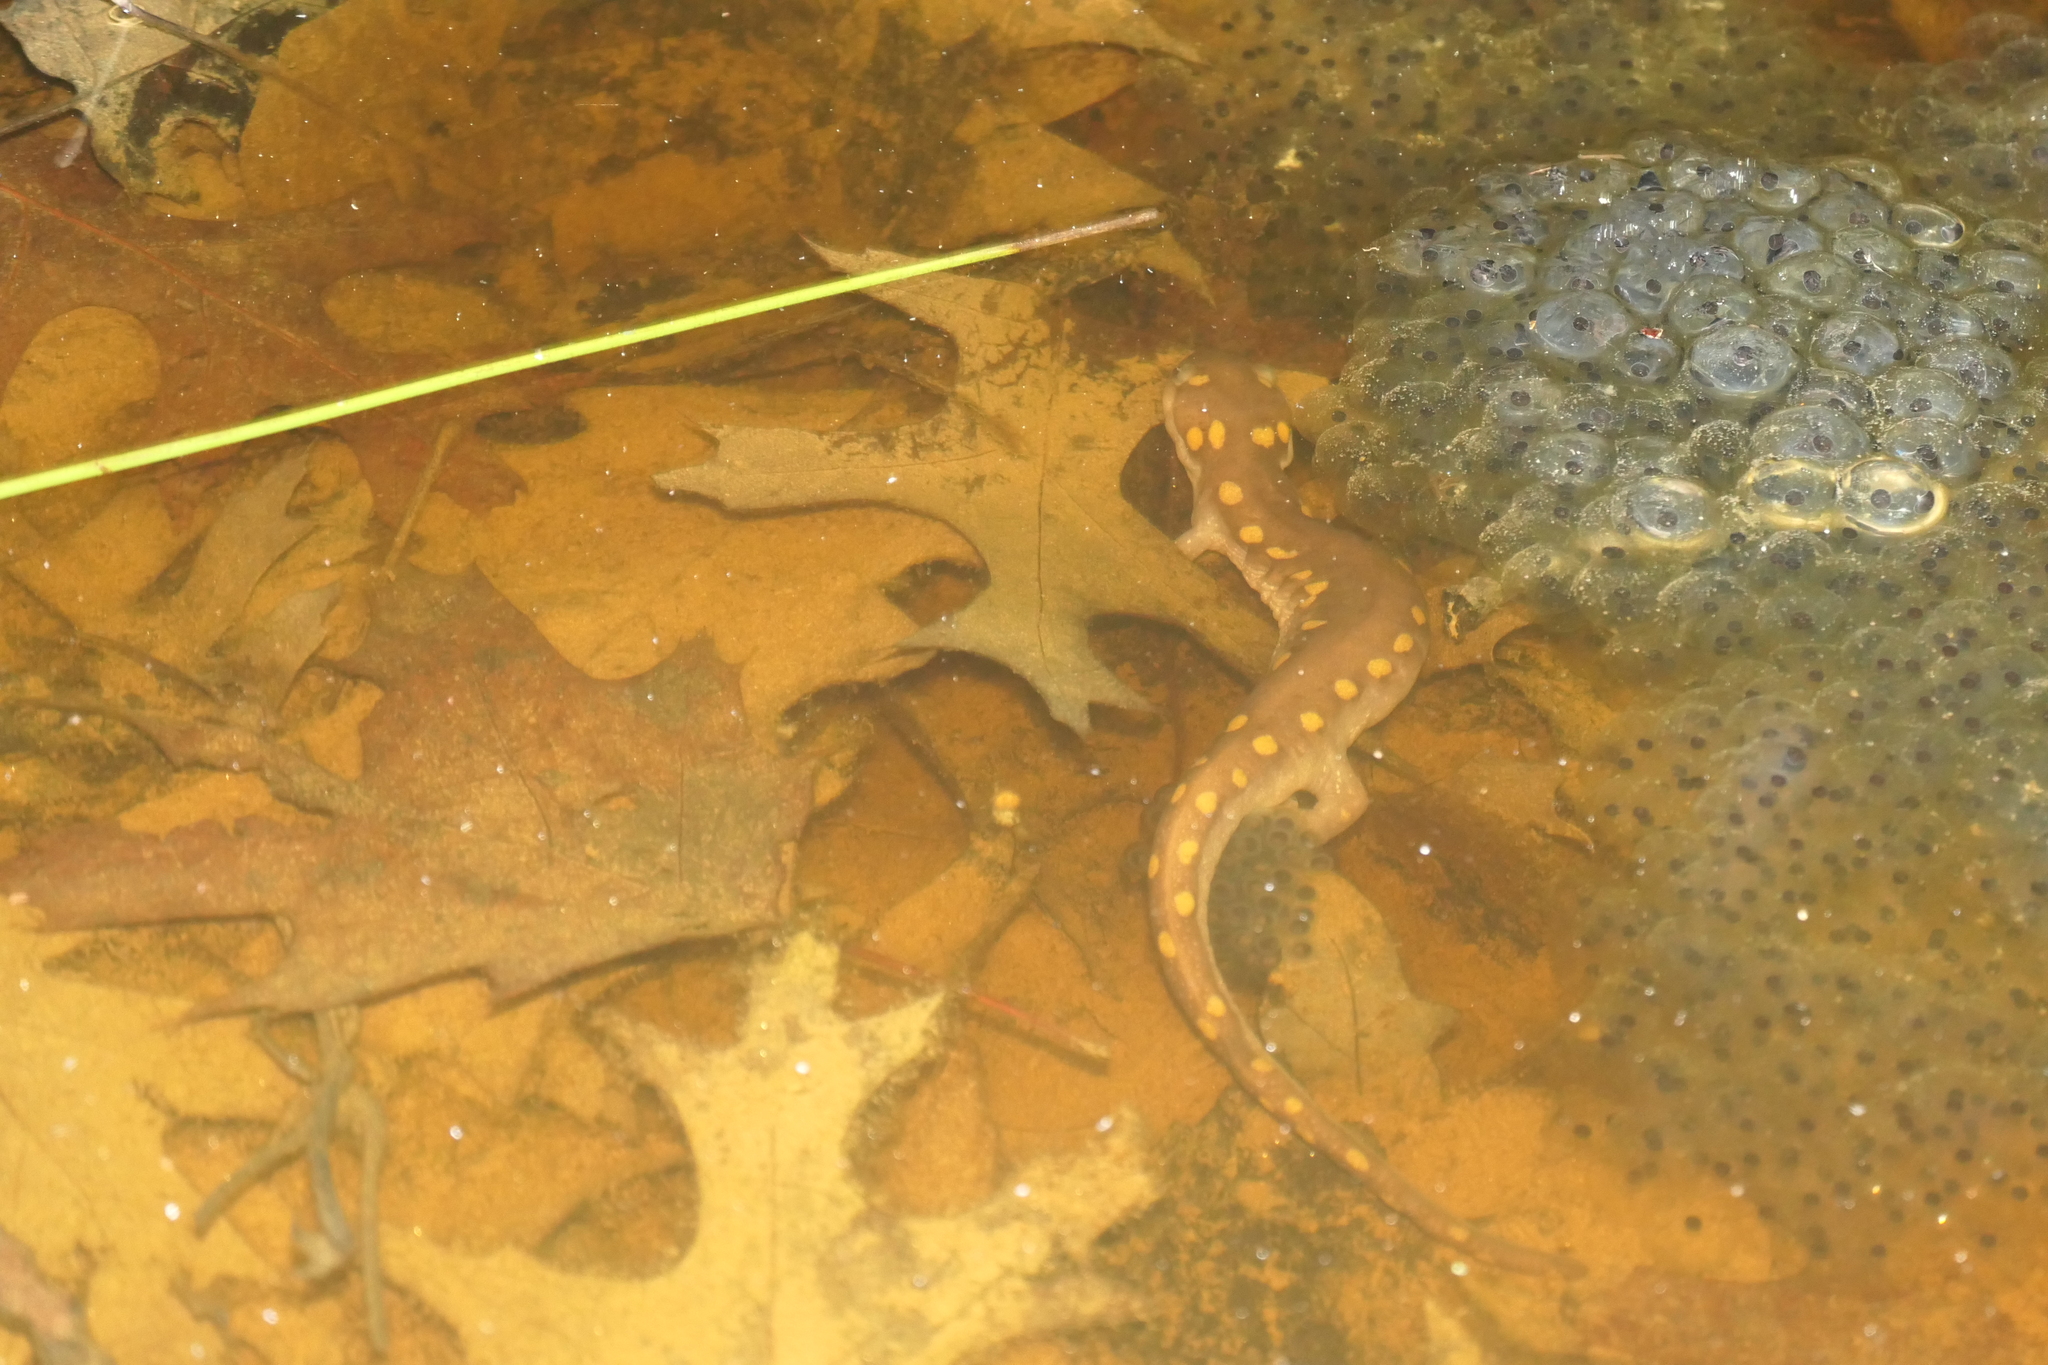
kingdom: Animalia
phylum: Chordata
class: Amphibia
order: Caudata
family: Ambystomatidae
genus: Ambystoma
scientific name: Ambystoma maculatum
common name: Spotted salamander
